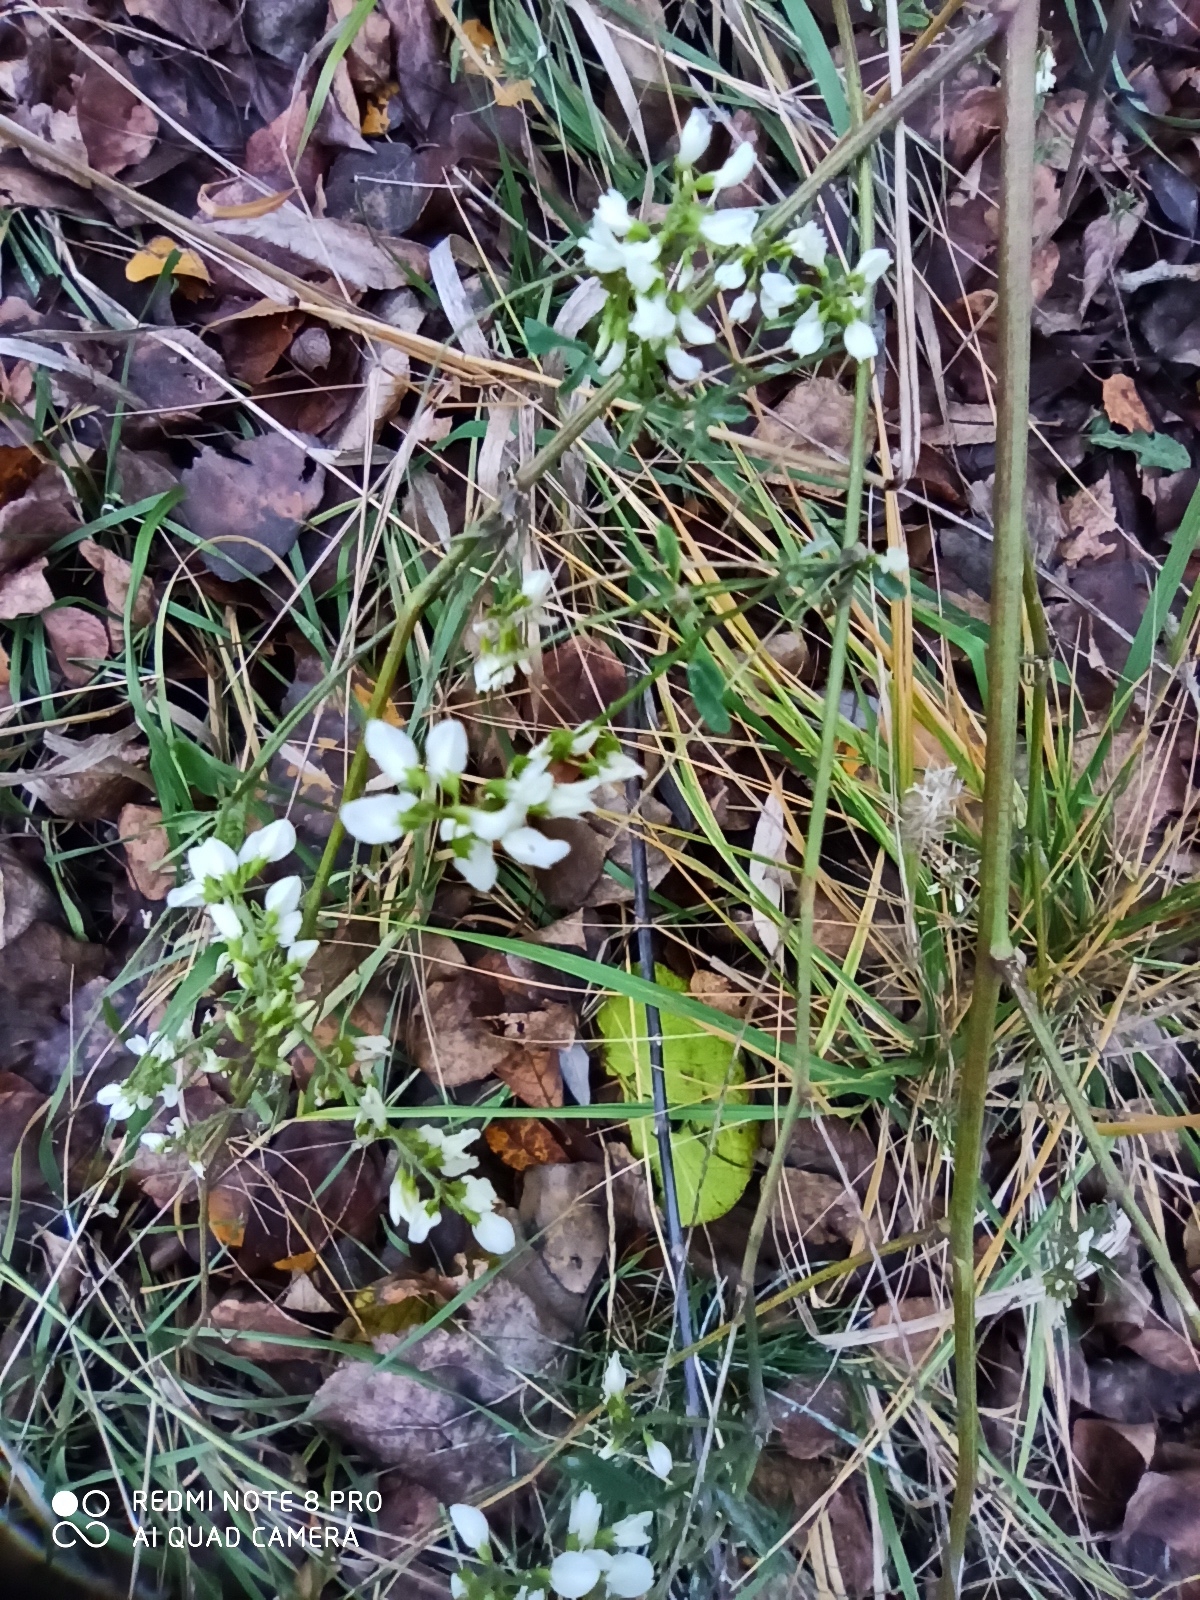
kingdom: Plantae
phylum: Tracheophyta
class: Magnoliopsida
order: Fabales
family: Fabaceae
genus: Melilotus
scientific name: Melilotus albus
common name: White melilot
